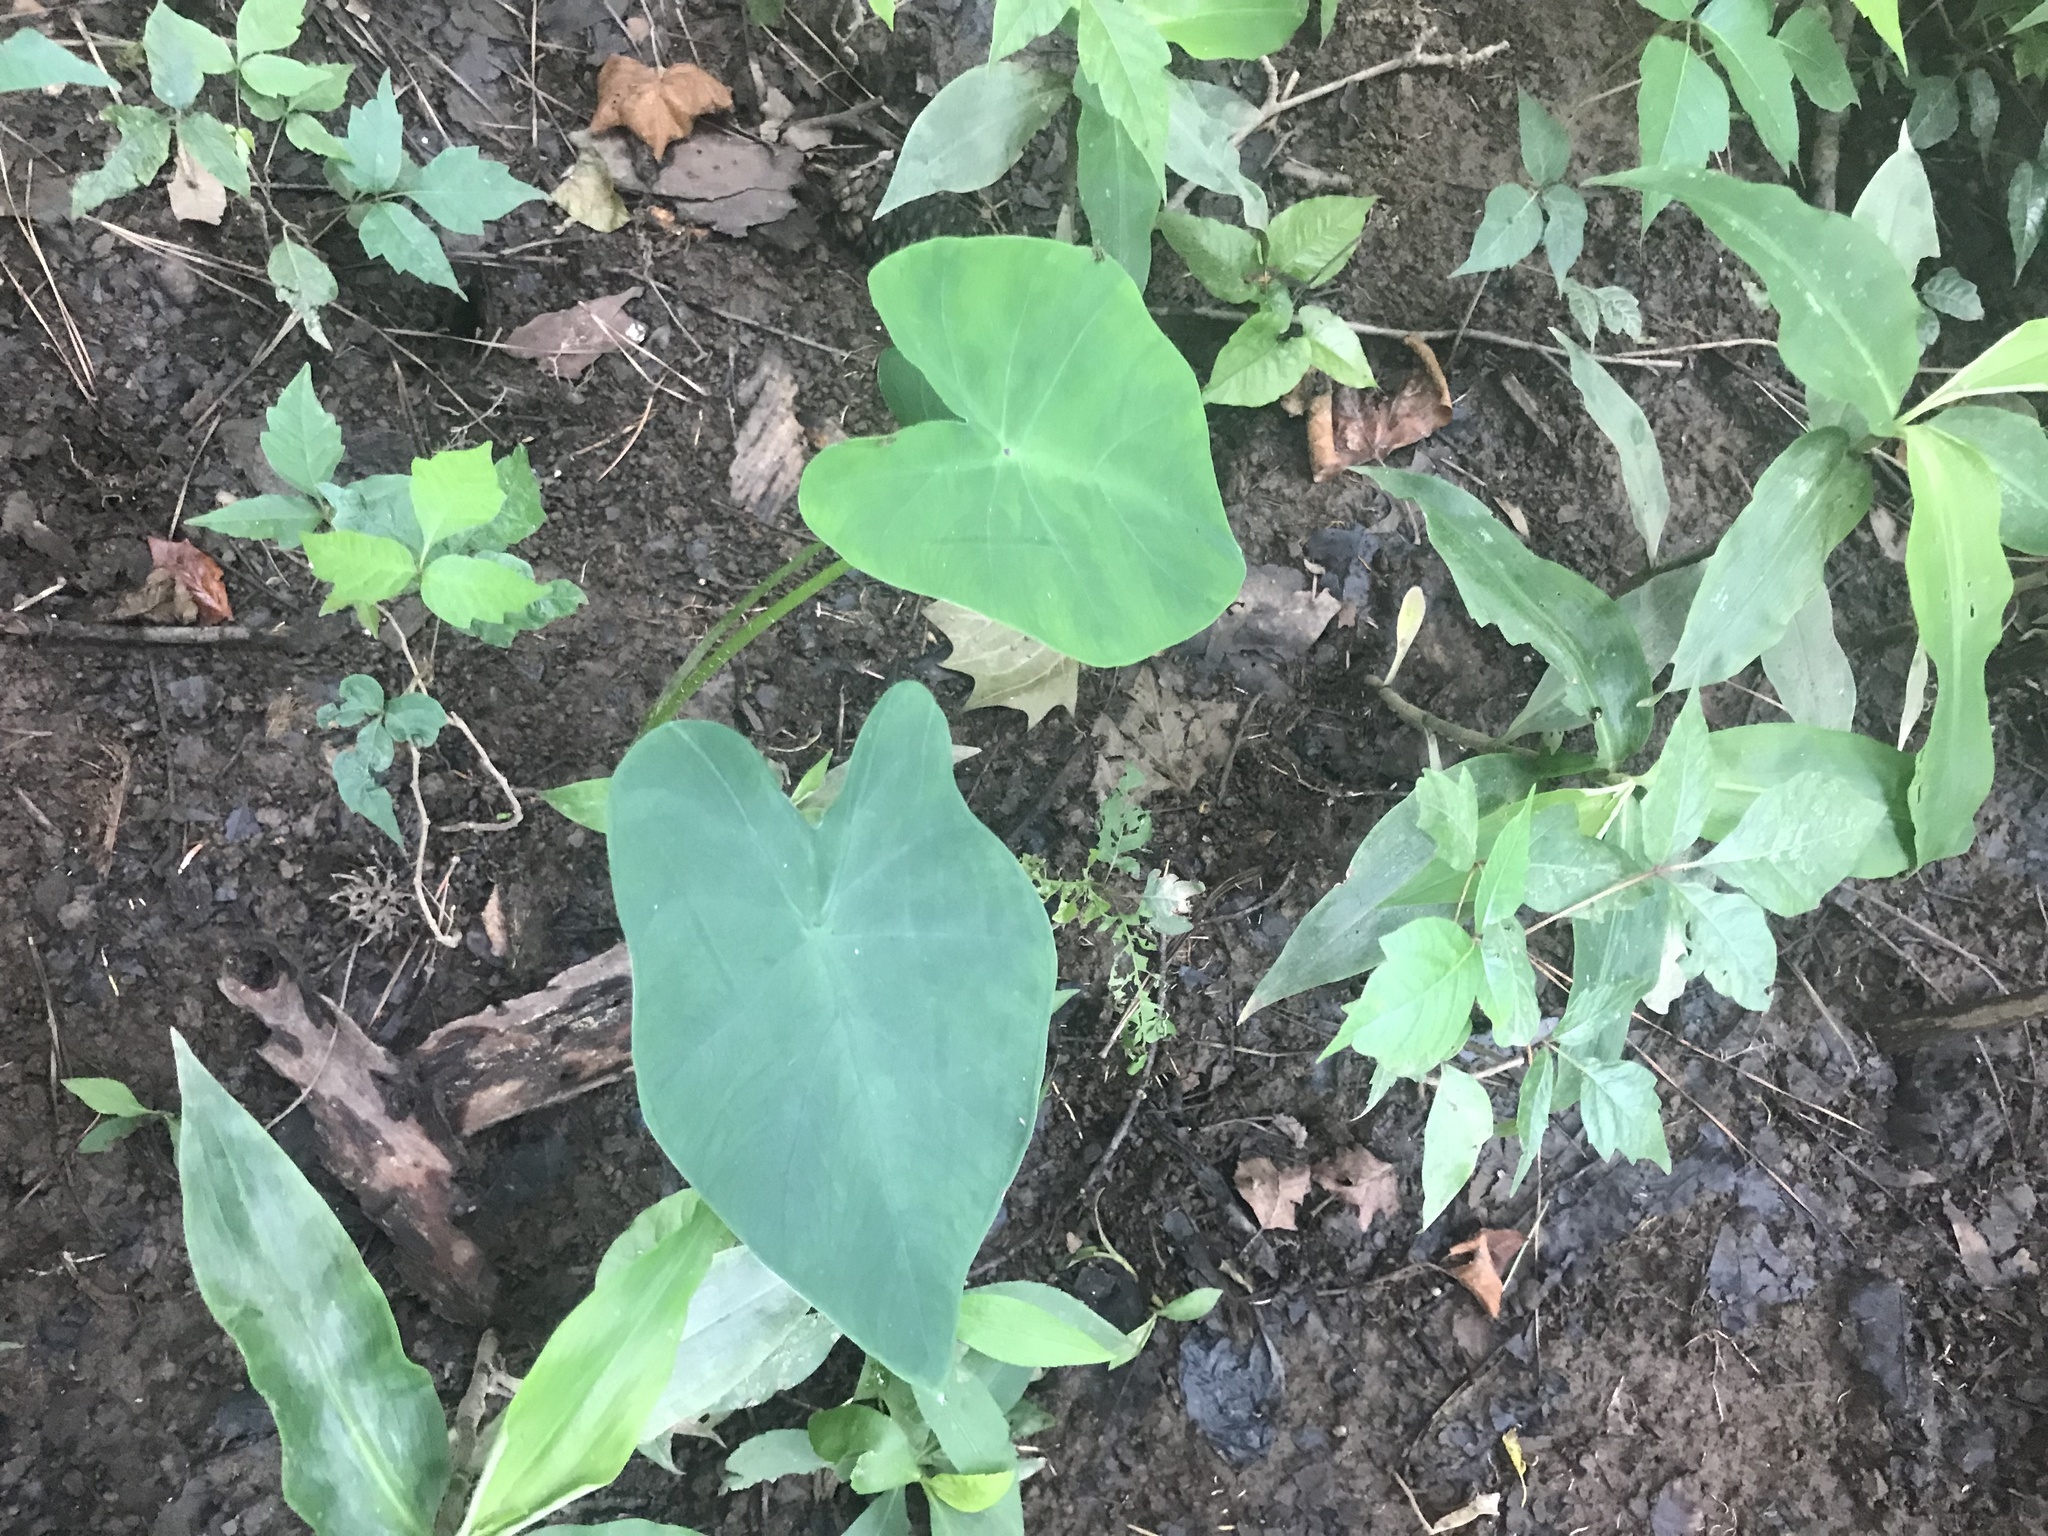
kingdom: Plantae
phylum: Tracheophyta
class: Liliopsida
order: Alismatales
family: Araceae
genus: Colocasia
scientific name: Colocasia esculenta
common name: Taro
